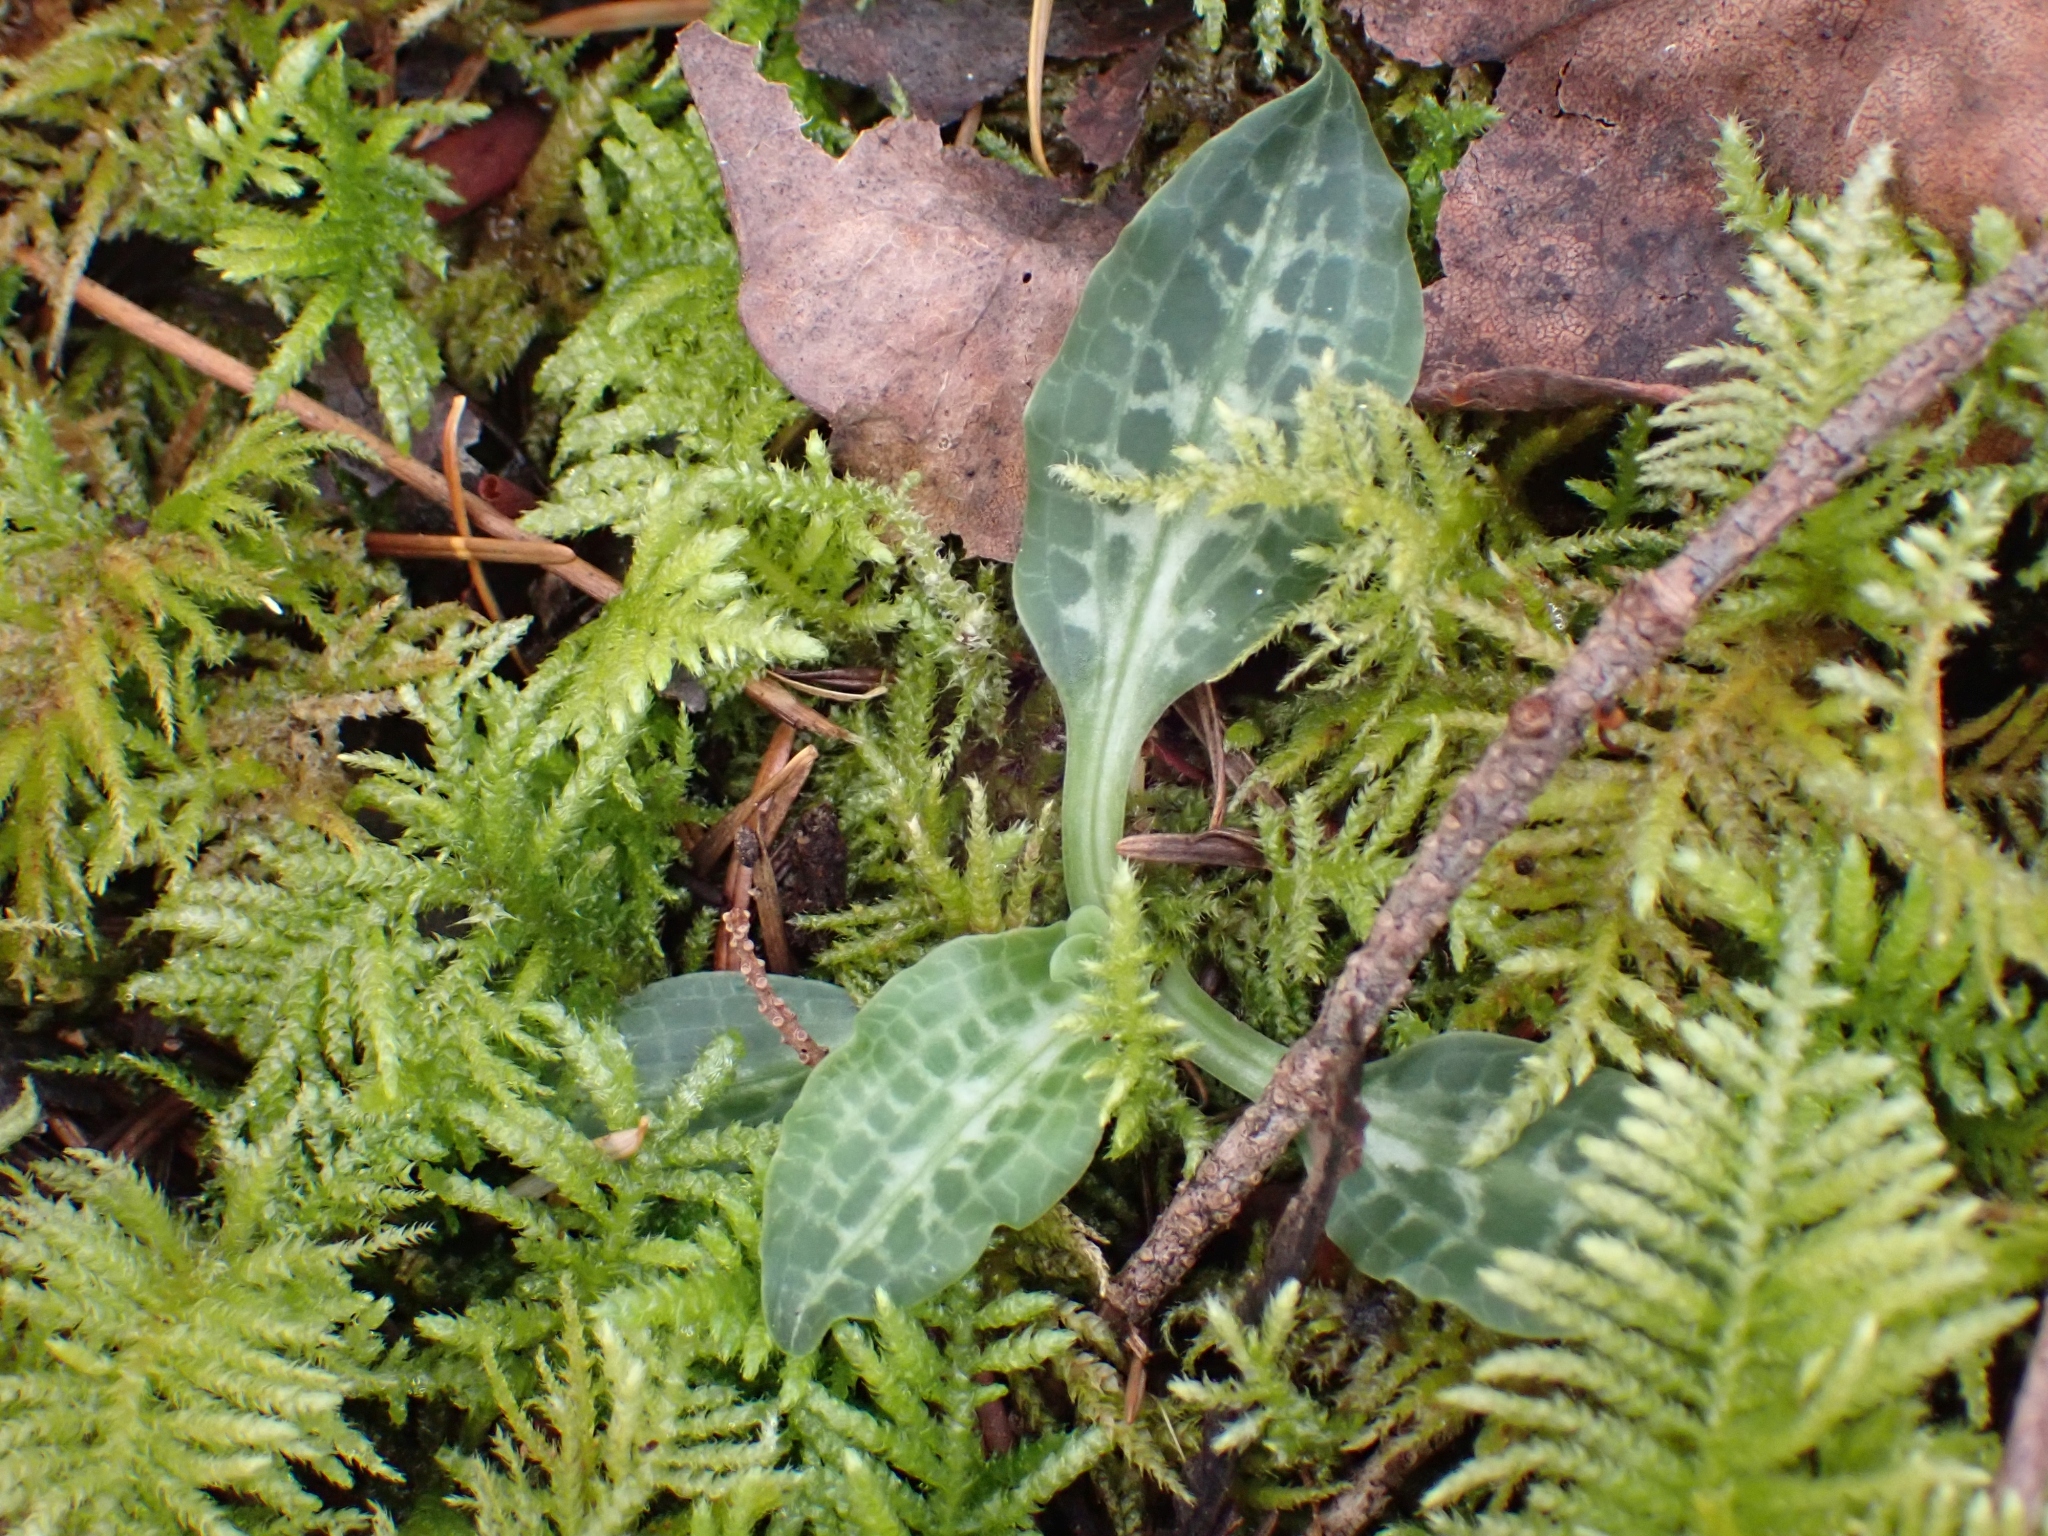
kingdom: Plantae
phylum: Tracheophyta
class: Liliopsida
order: Asparagales
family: Orchidaceae
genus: Goodyera
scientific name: Goodyera oblongifolia
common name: Giant rattlesnake-plantain
